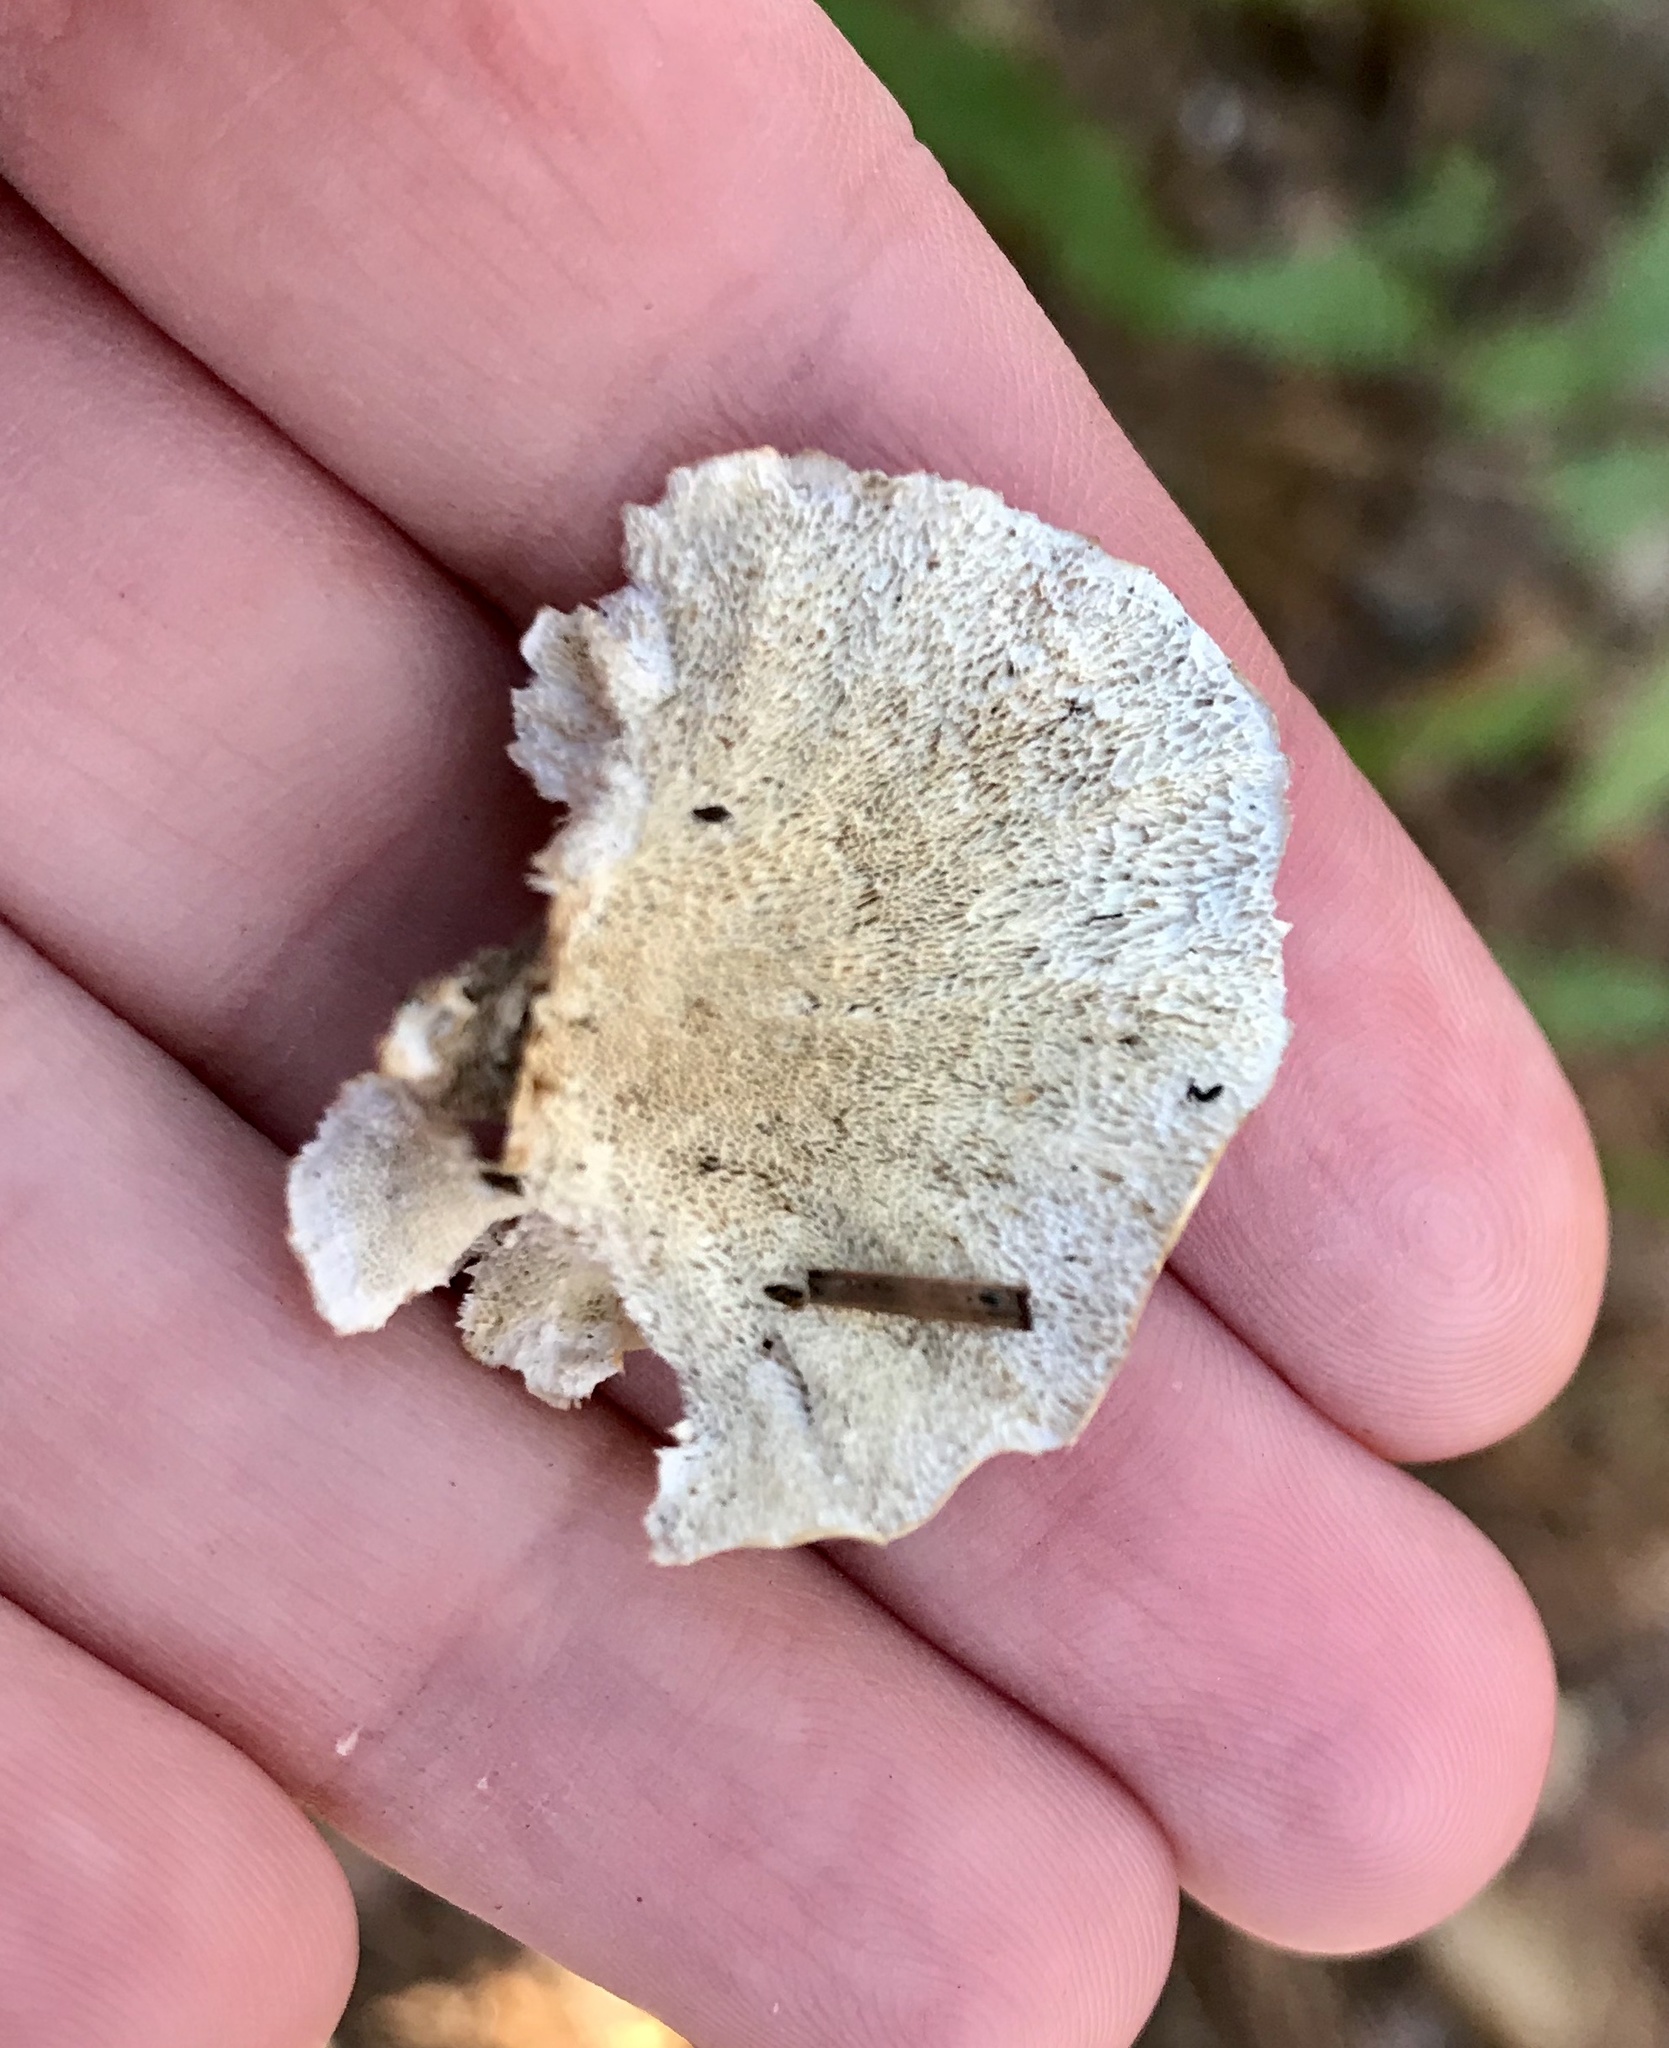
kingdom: Fungi
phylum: Basidiomycota
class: Agaricomycetes
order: Polyporales
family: Polyporaceae
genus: Trametes
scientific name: Trametes versicolor
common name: Turkeytail
